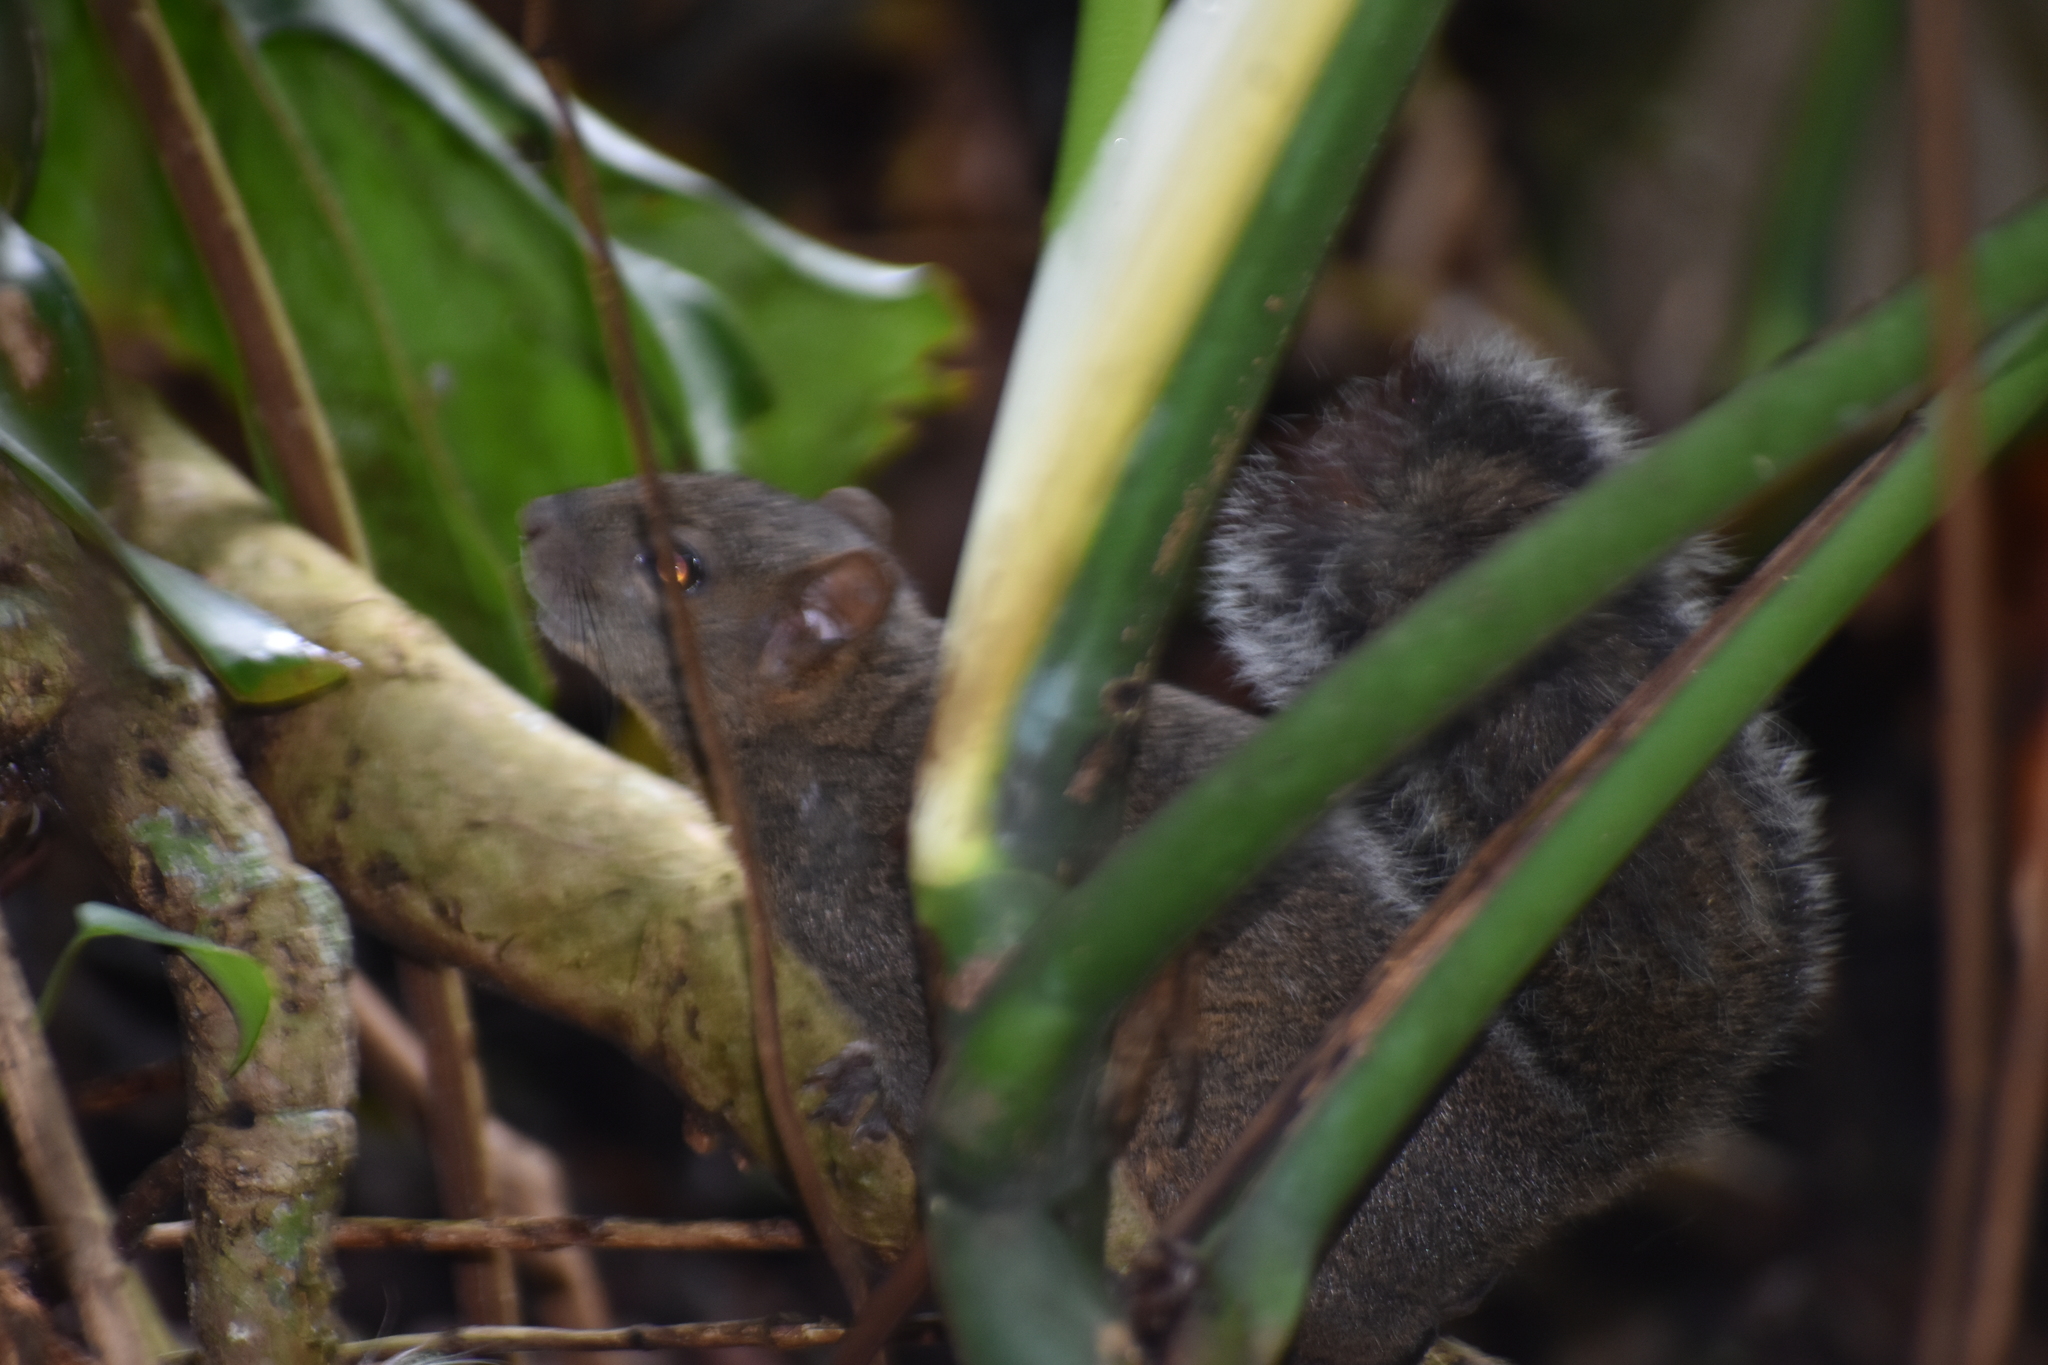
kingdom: Animalia
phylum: Chordata
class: Mammalia
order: Rodentia
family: Sciuridae
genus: Sciurus
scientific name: Sciurus deppei
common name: Deppe's squirrel
